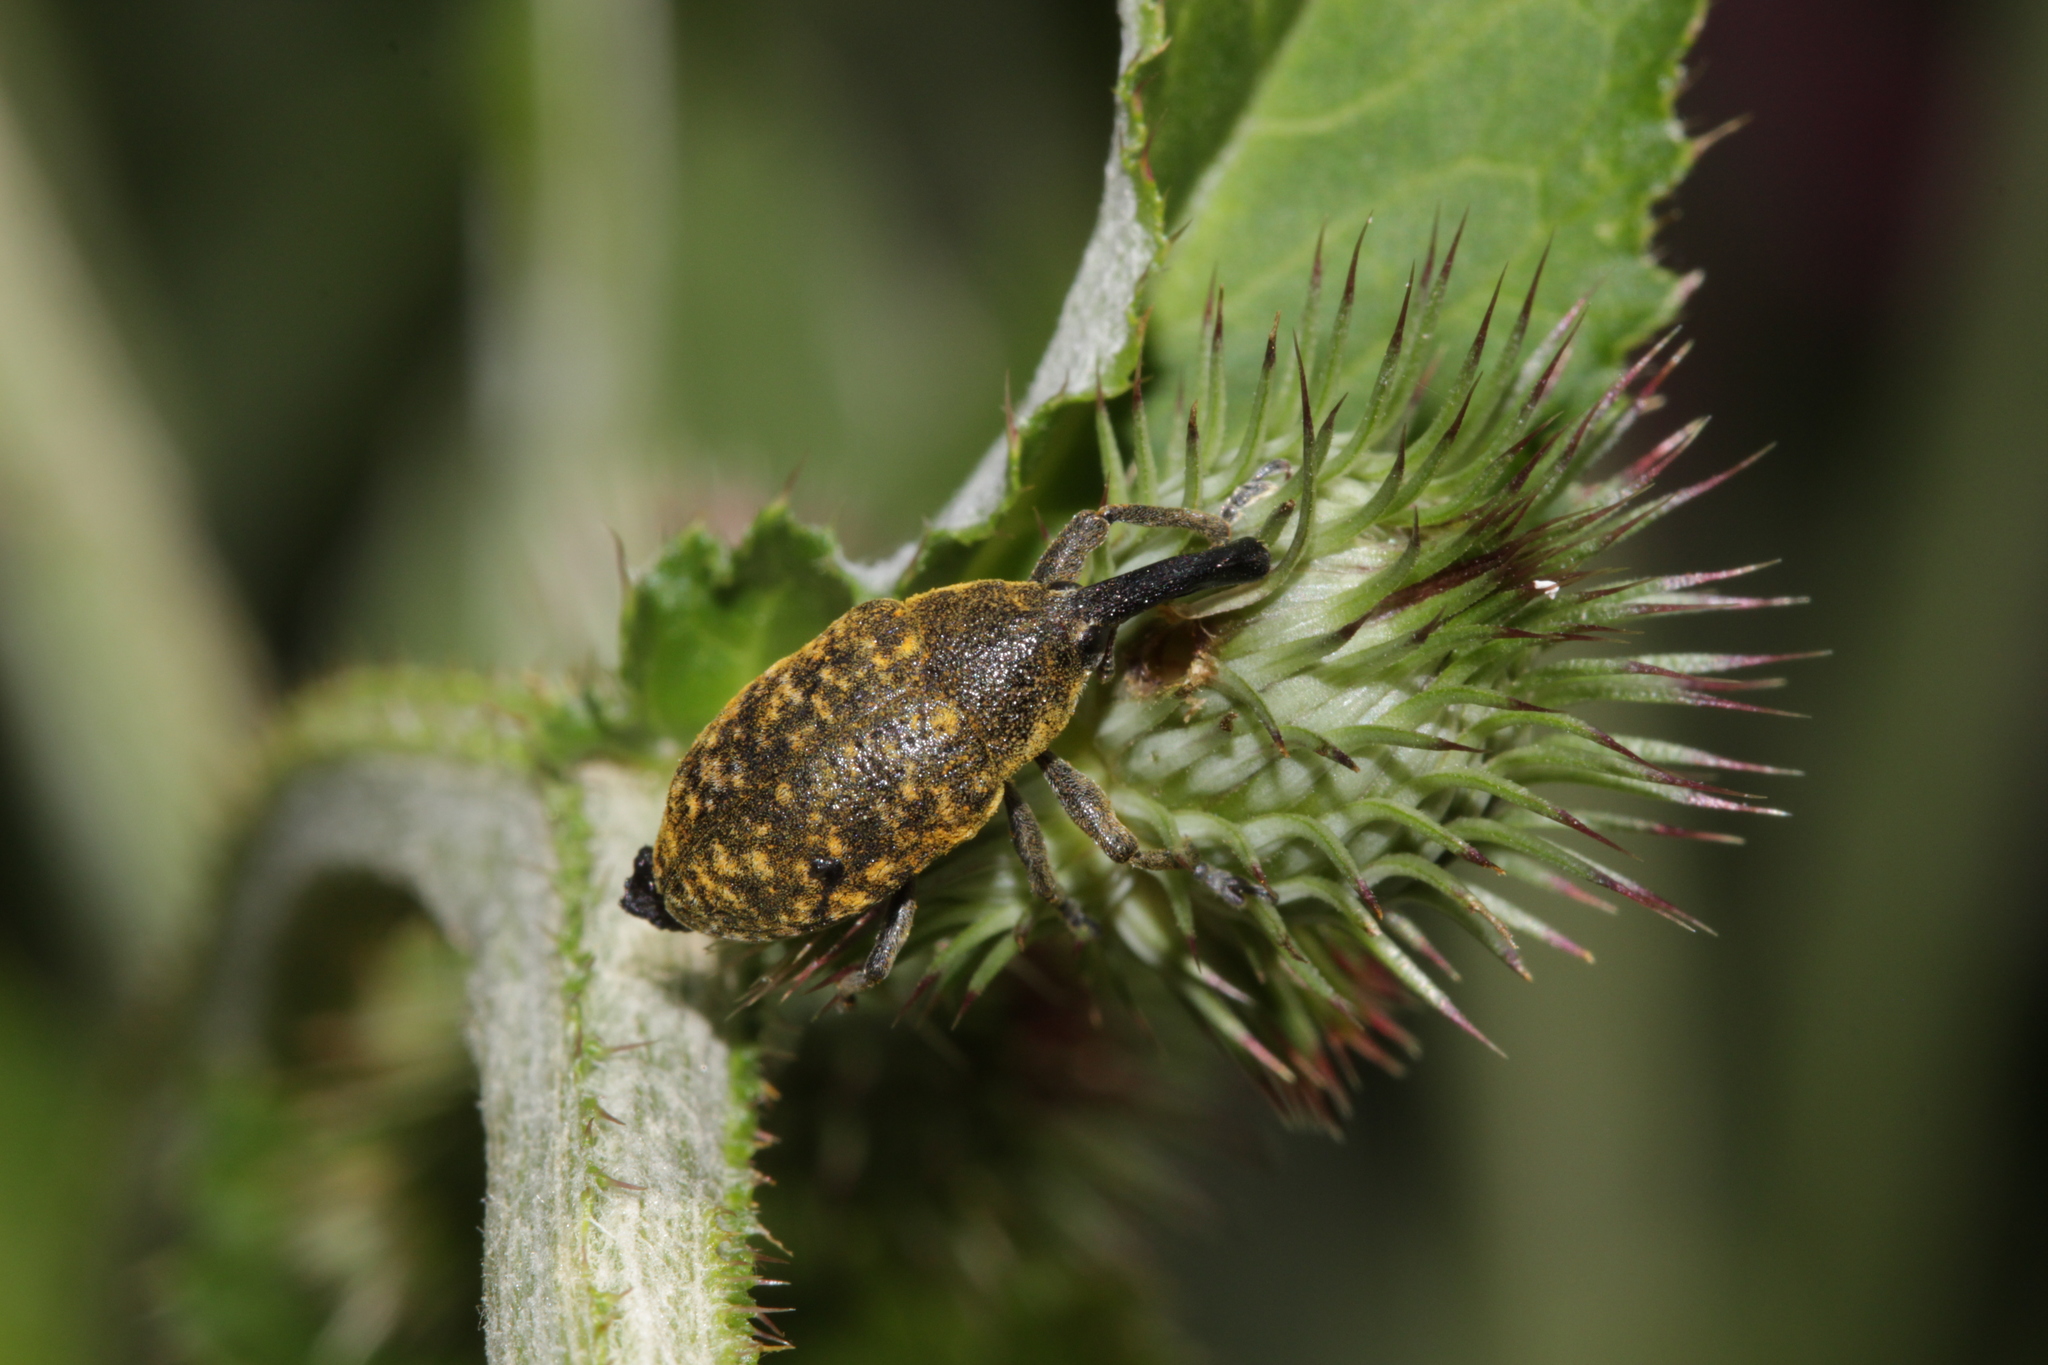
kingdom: Animalia
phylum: Arthropoda
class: Insecta
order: Coleoptera
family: Curculionidae
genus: Larinus
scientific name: Larinus sturnus
